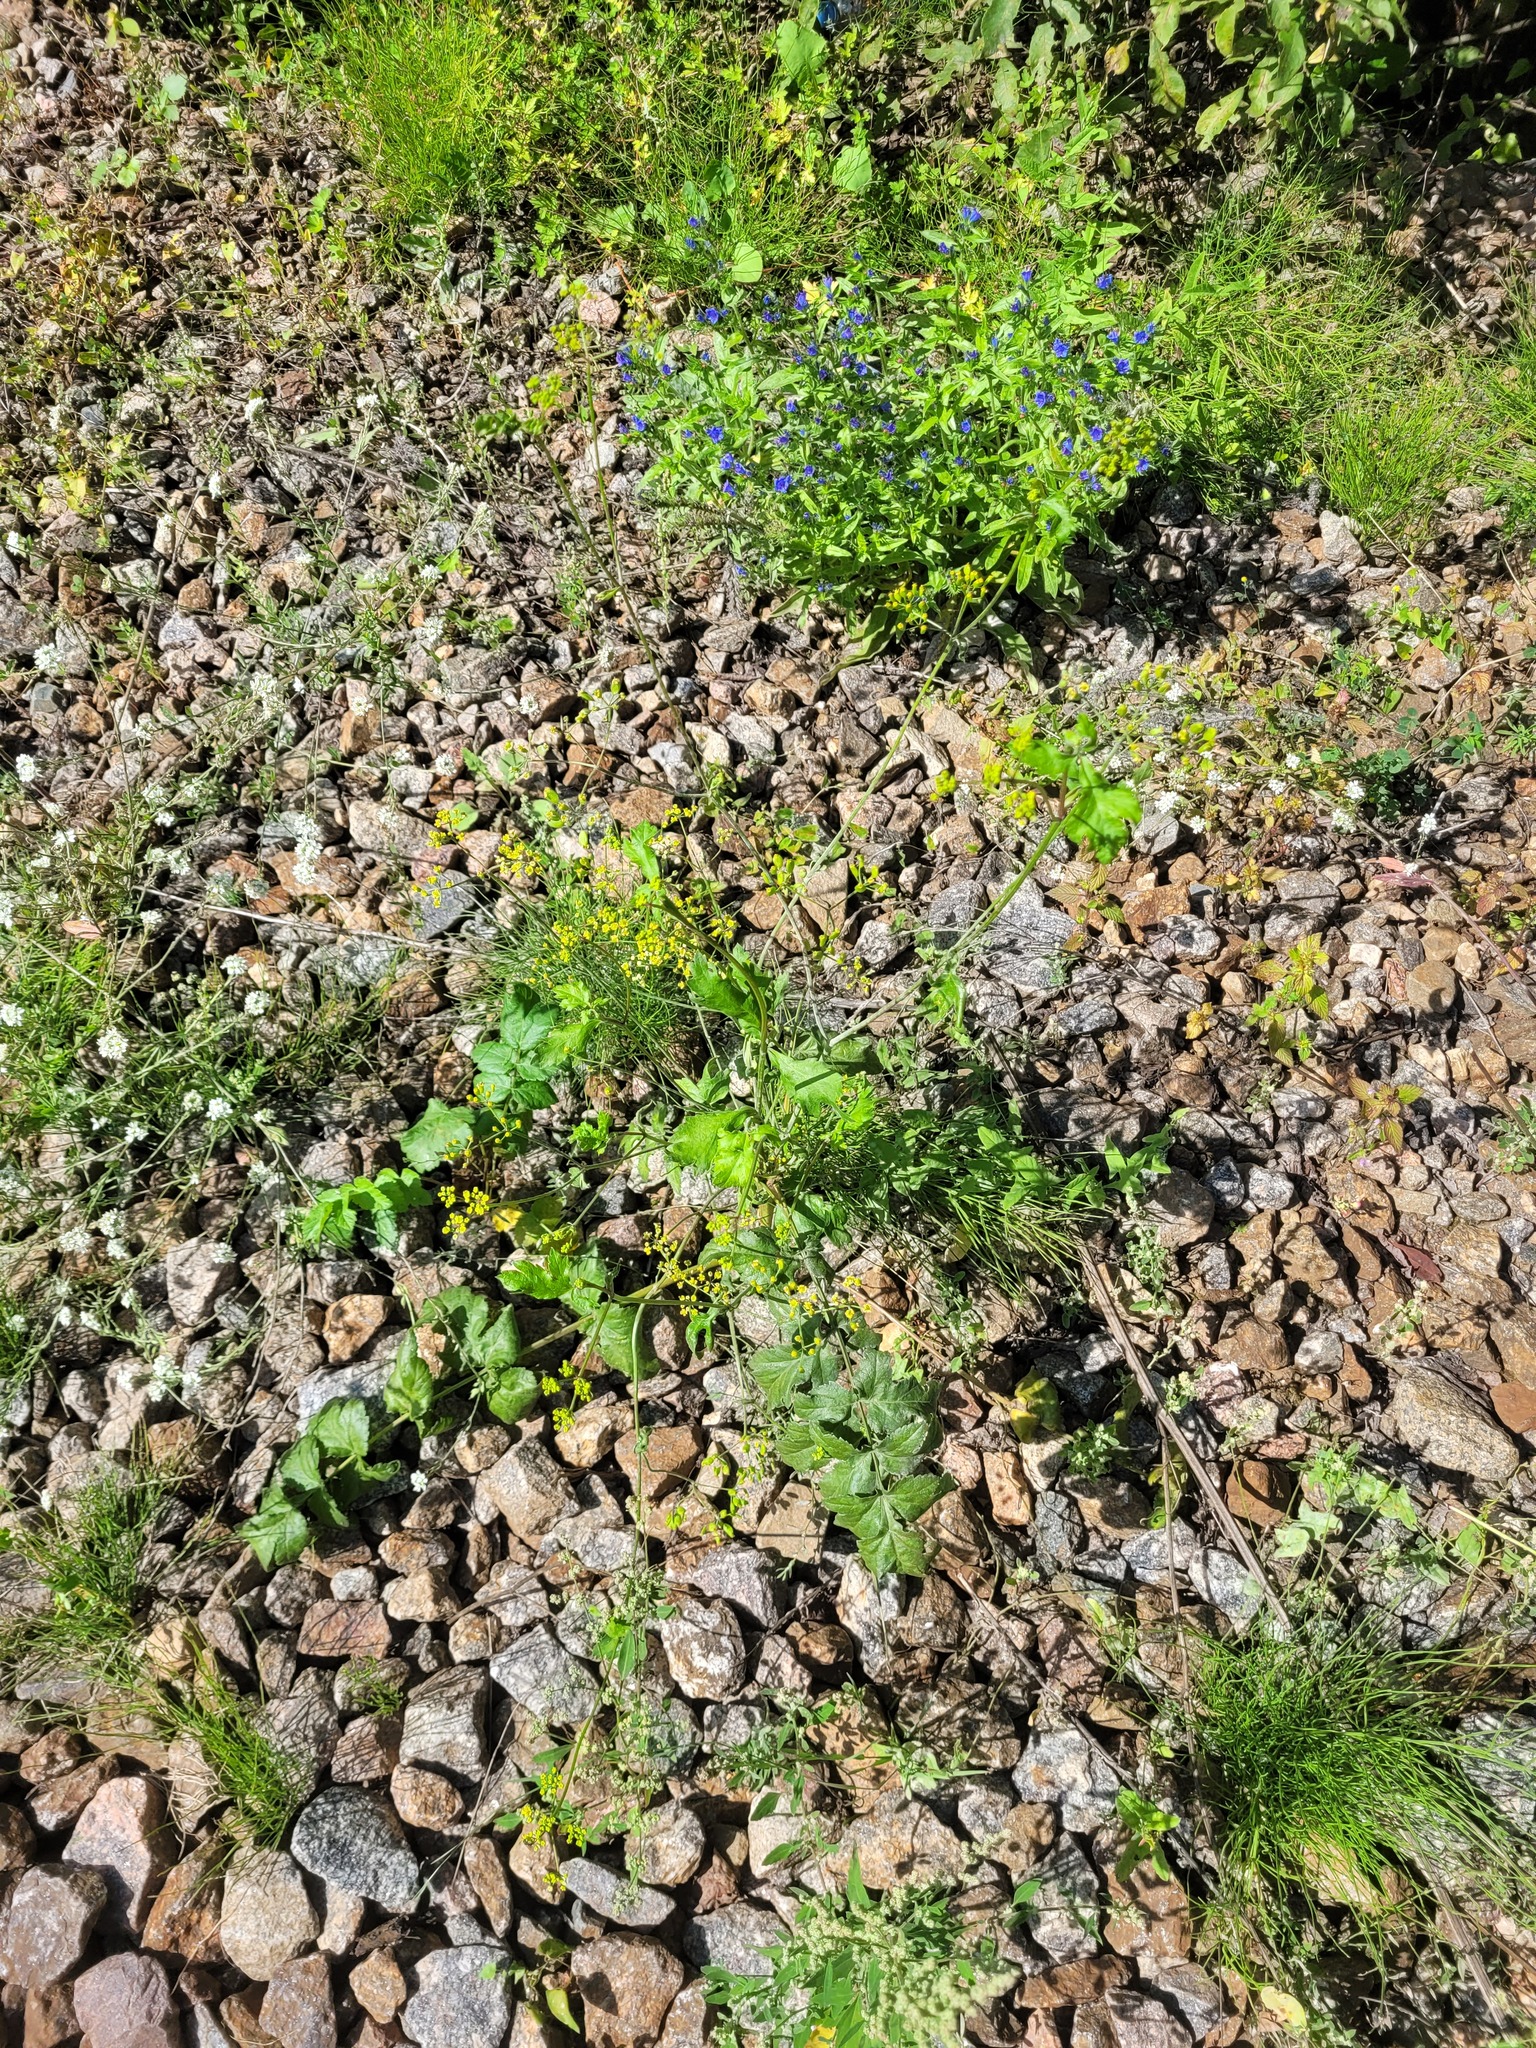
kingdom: Plantae
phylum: Tracheophyta
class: Magnoliopsida
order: Apiales
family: Apiaceae
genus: Pastinaca
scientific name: Pastinaca sativa
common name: Wild parsnip
